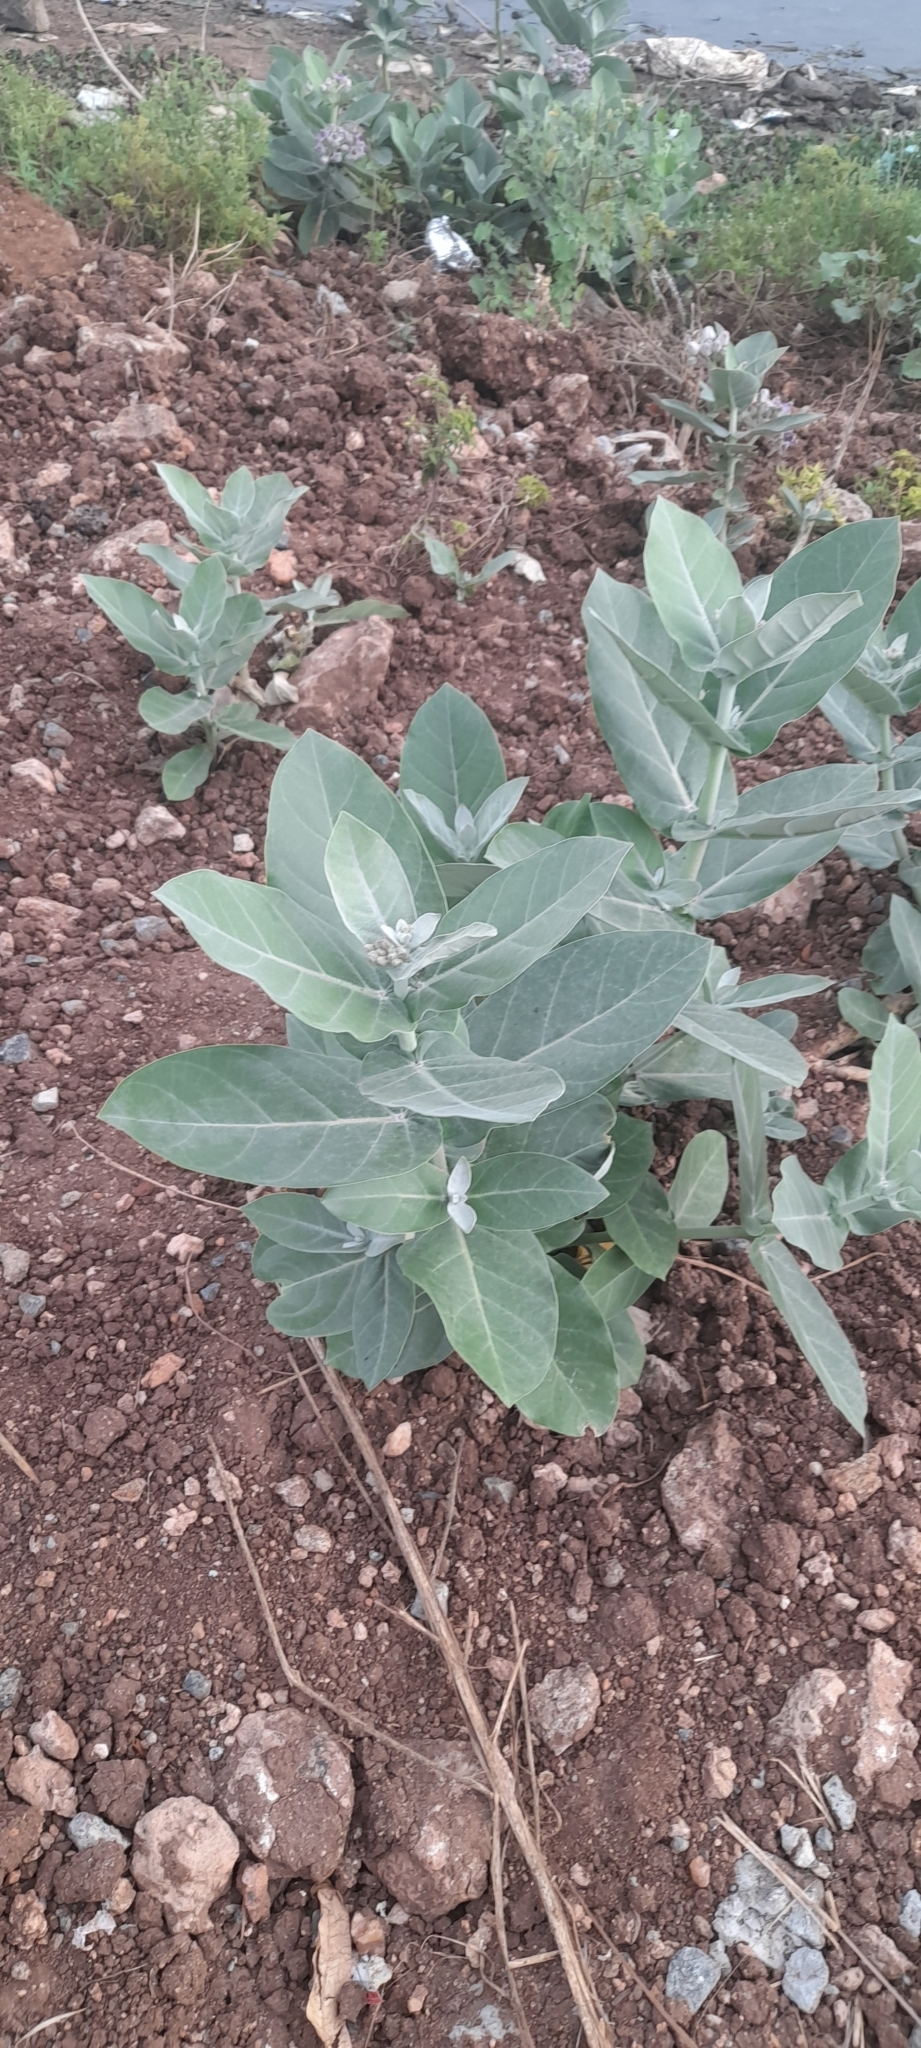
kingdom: Plantae
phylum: Tracheophyta
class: Magnoliopsida
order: Gentianales
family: Apocynaceae
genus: Calotropis
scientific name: Calotropis gigantea
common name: Crown flower
